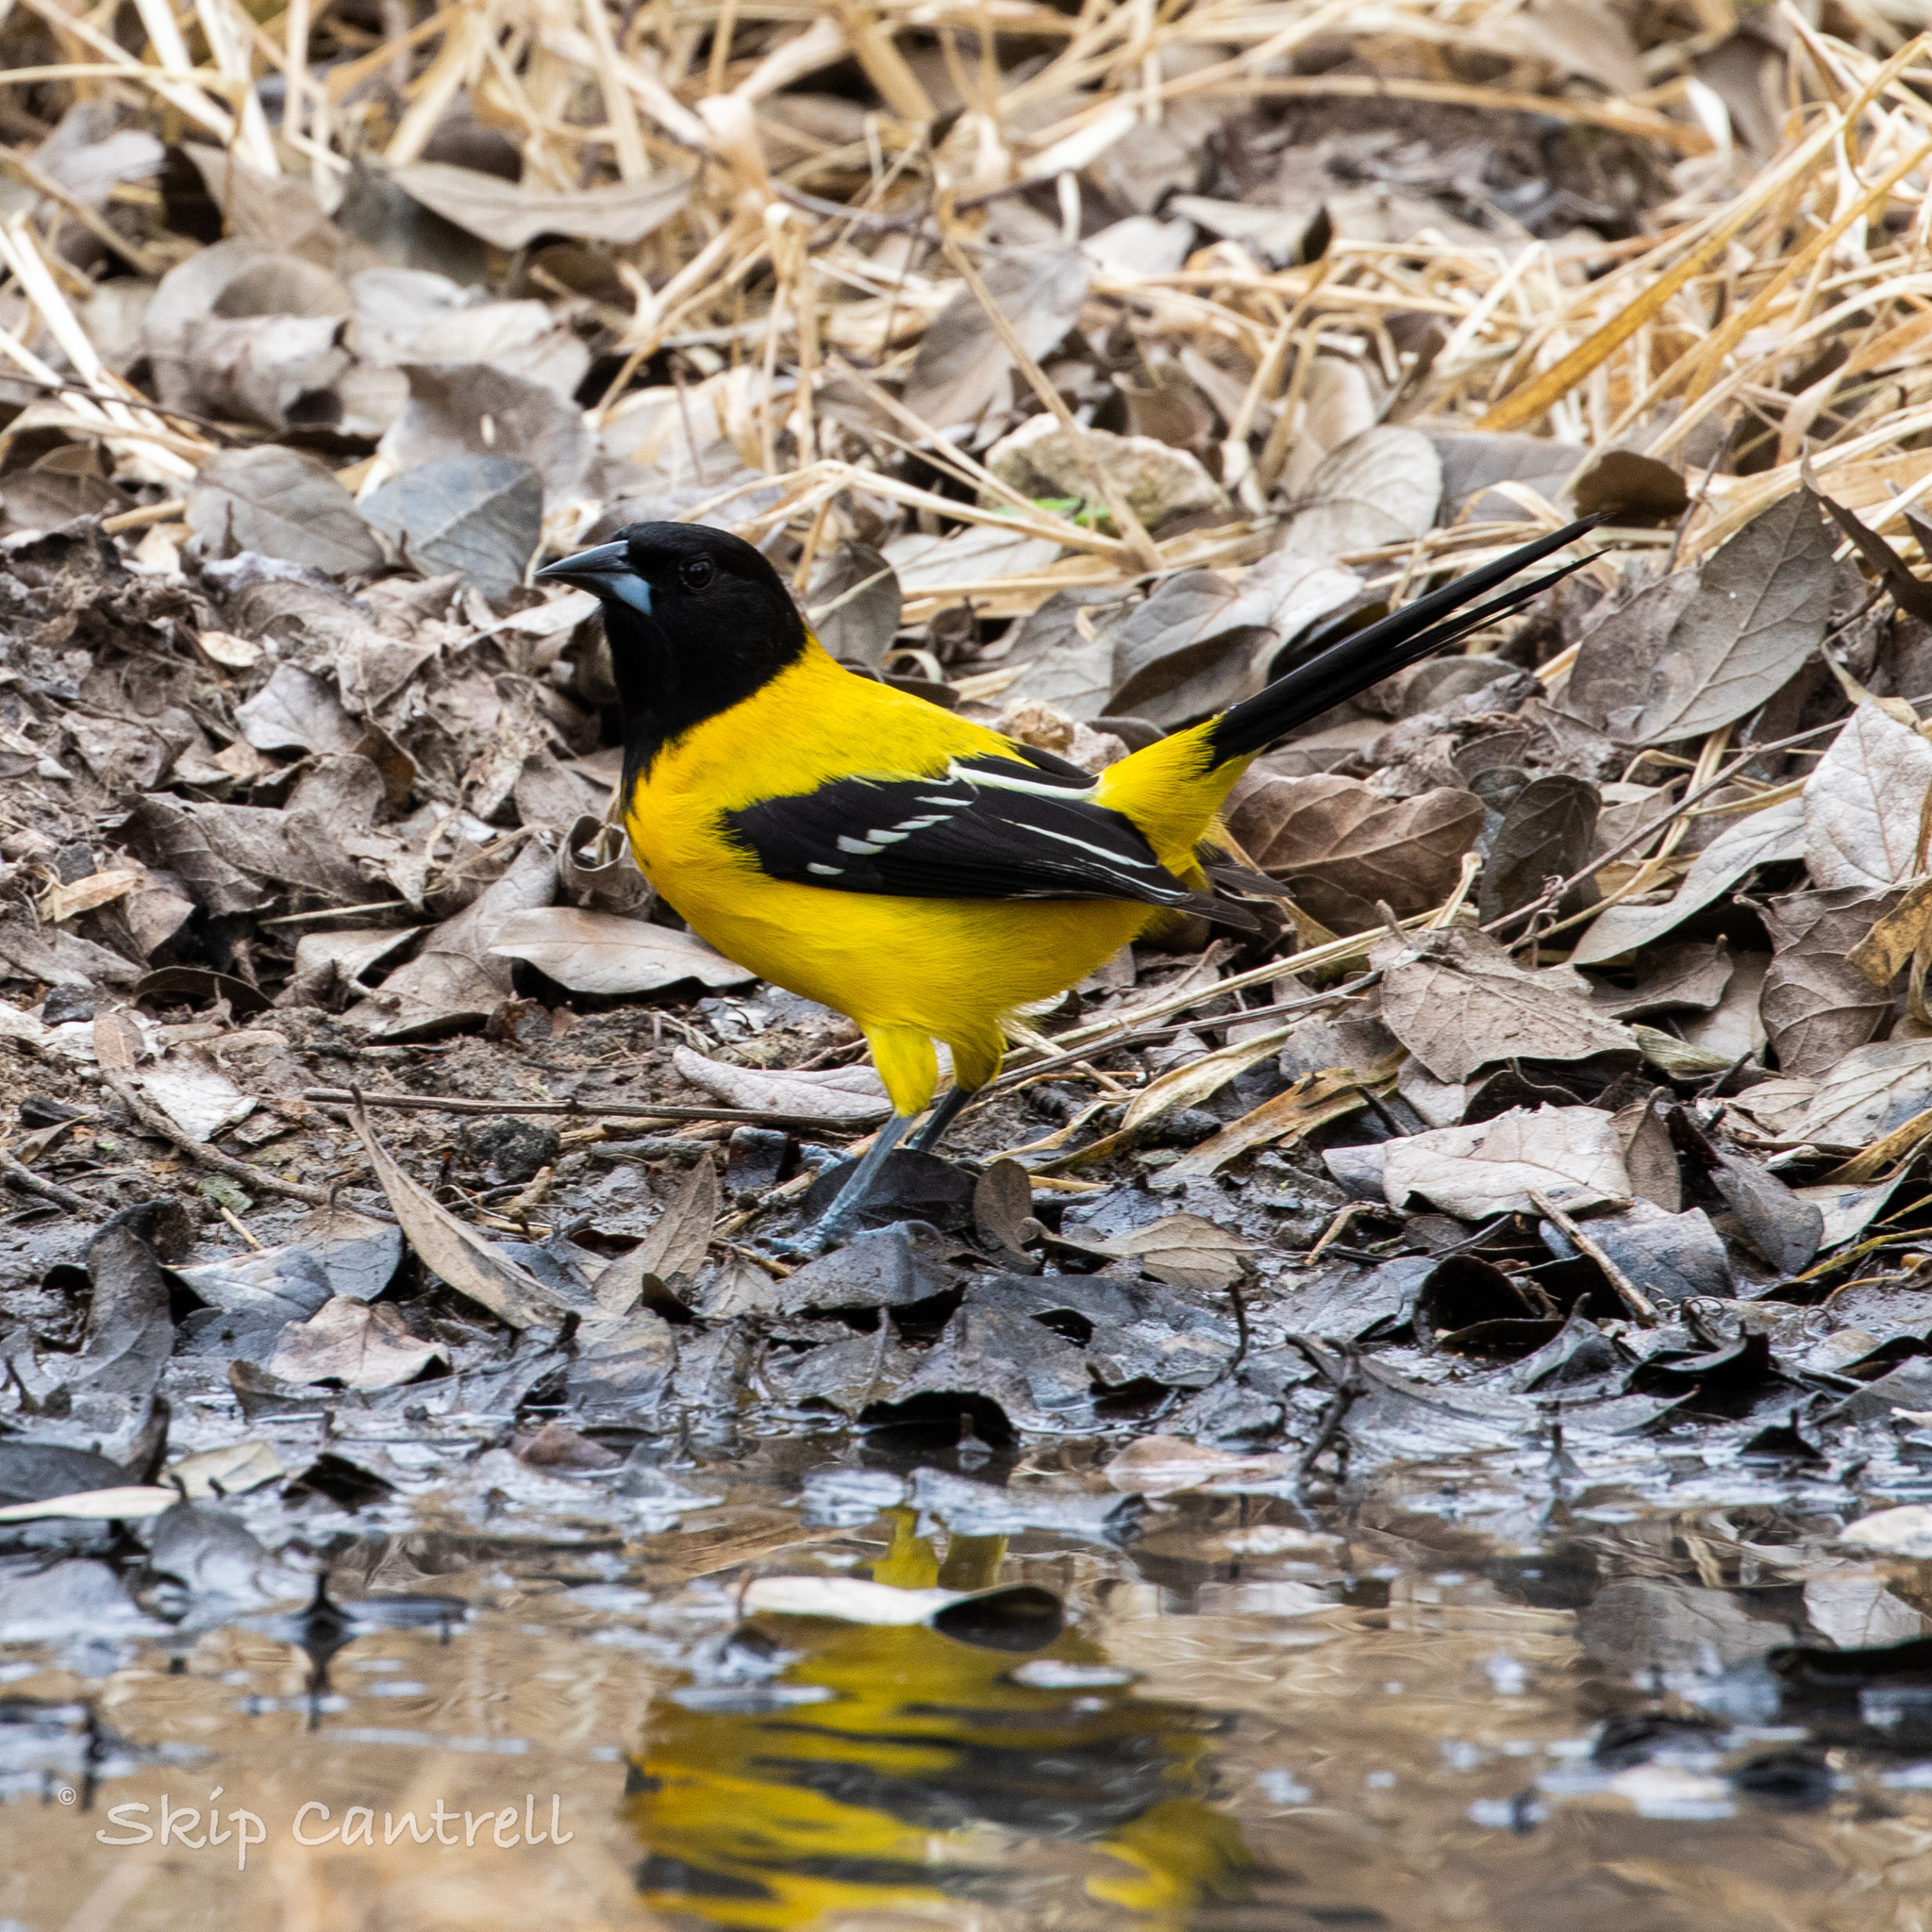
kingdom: Animalia
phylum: Chordata
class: Aves
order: Passeriformes
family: Icteridae
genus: Icterus
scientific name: Icterus graduacauda
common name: Audubon's oriole
